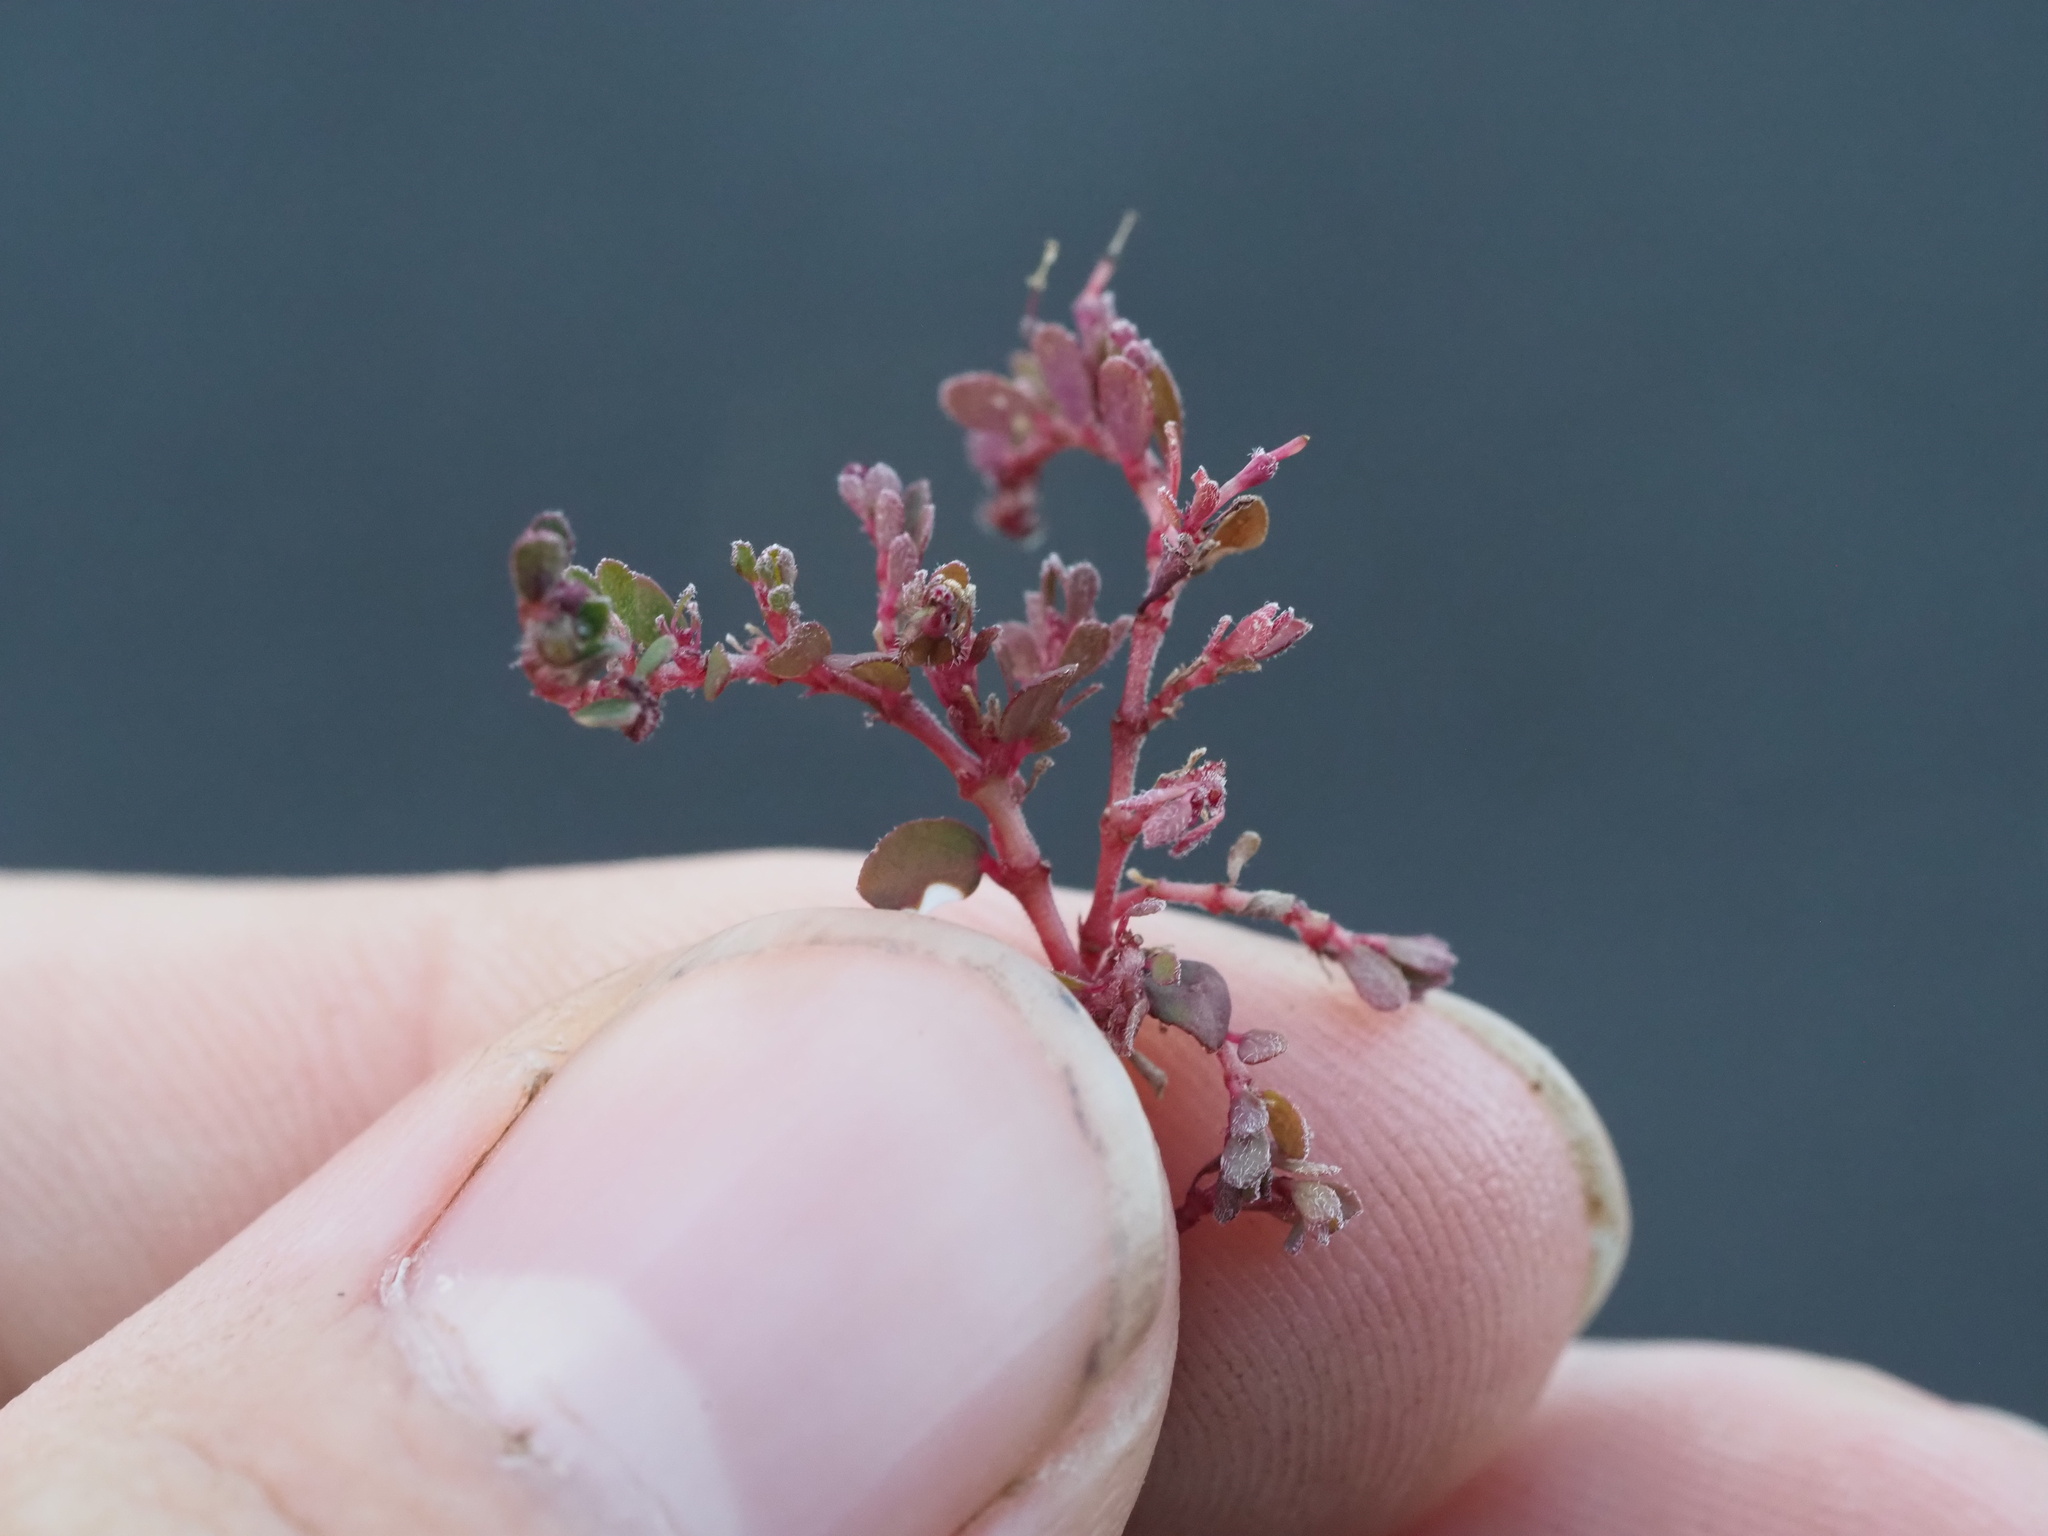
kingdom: Plantae
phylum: Tracheophyta
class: Magnoliopsida
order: Malpighiales
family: Euphorbiaceae
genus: Euphorbia
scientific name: Euphorbia prostrata
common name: Prostrate sandmat
